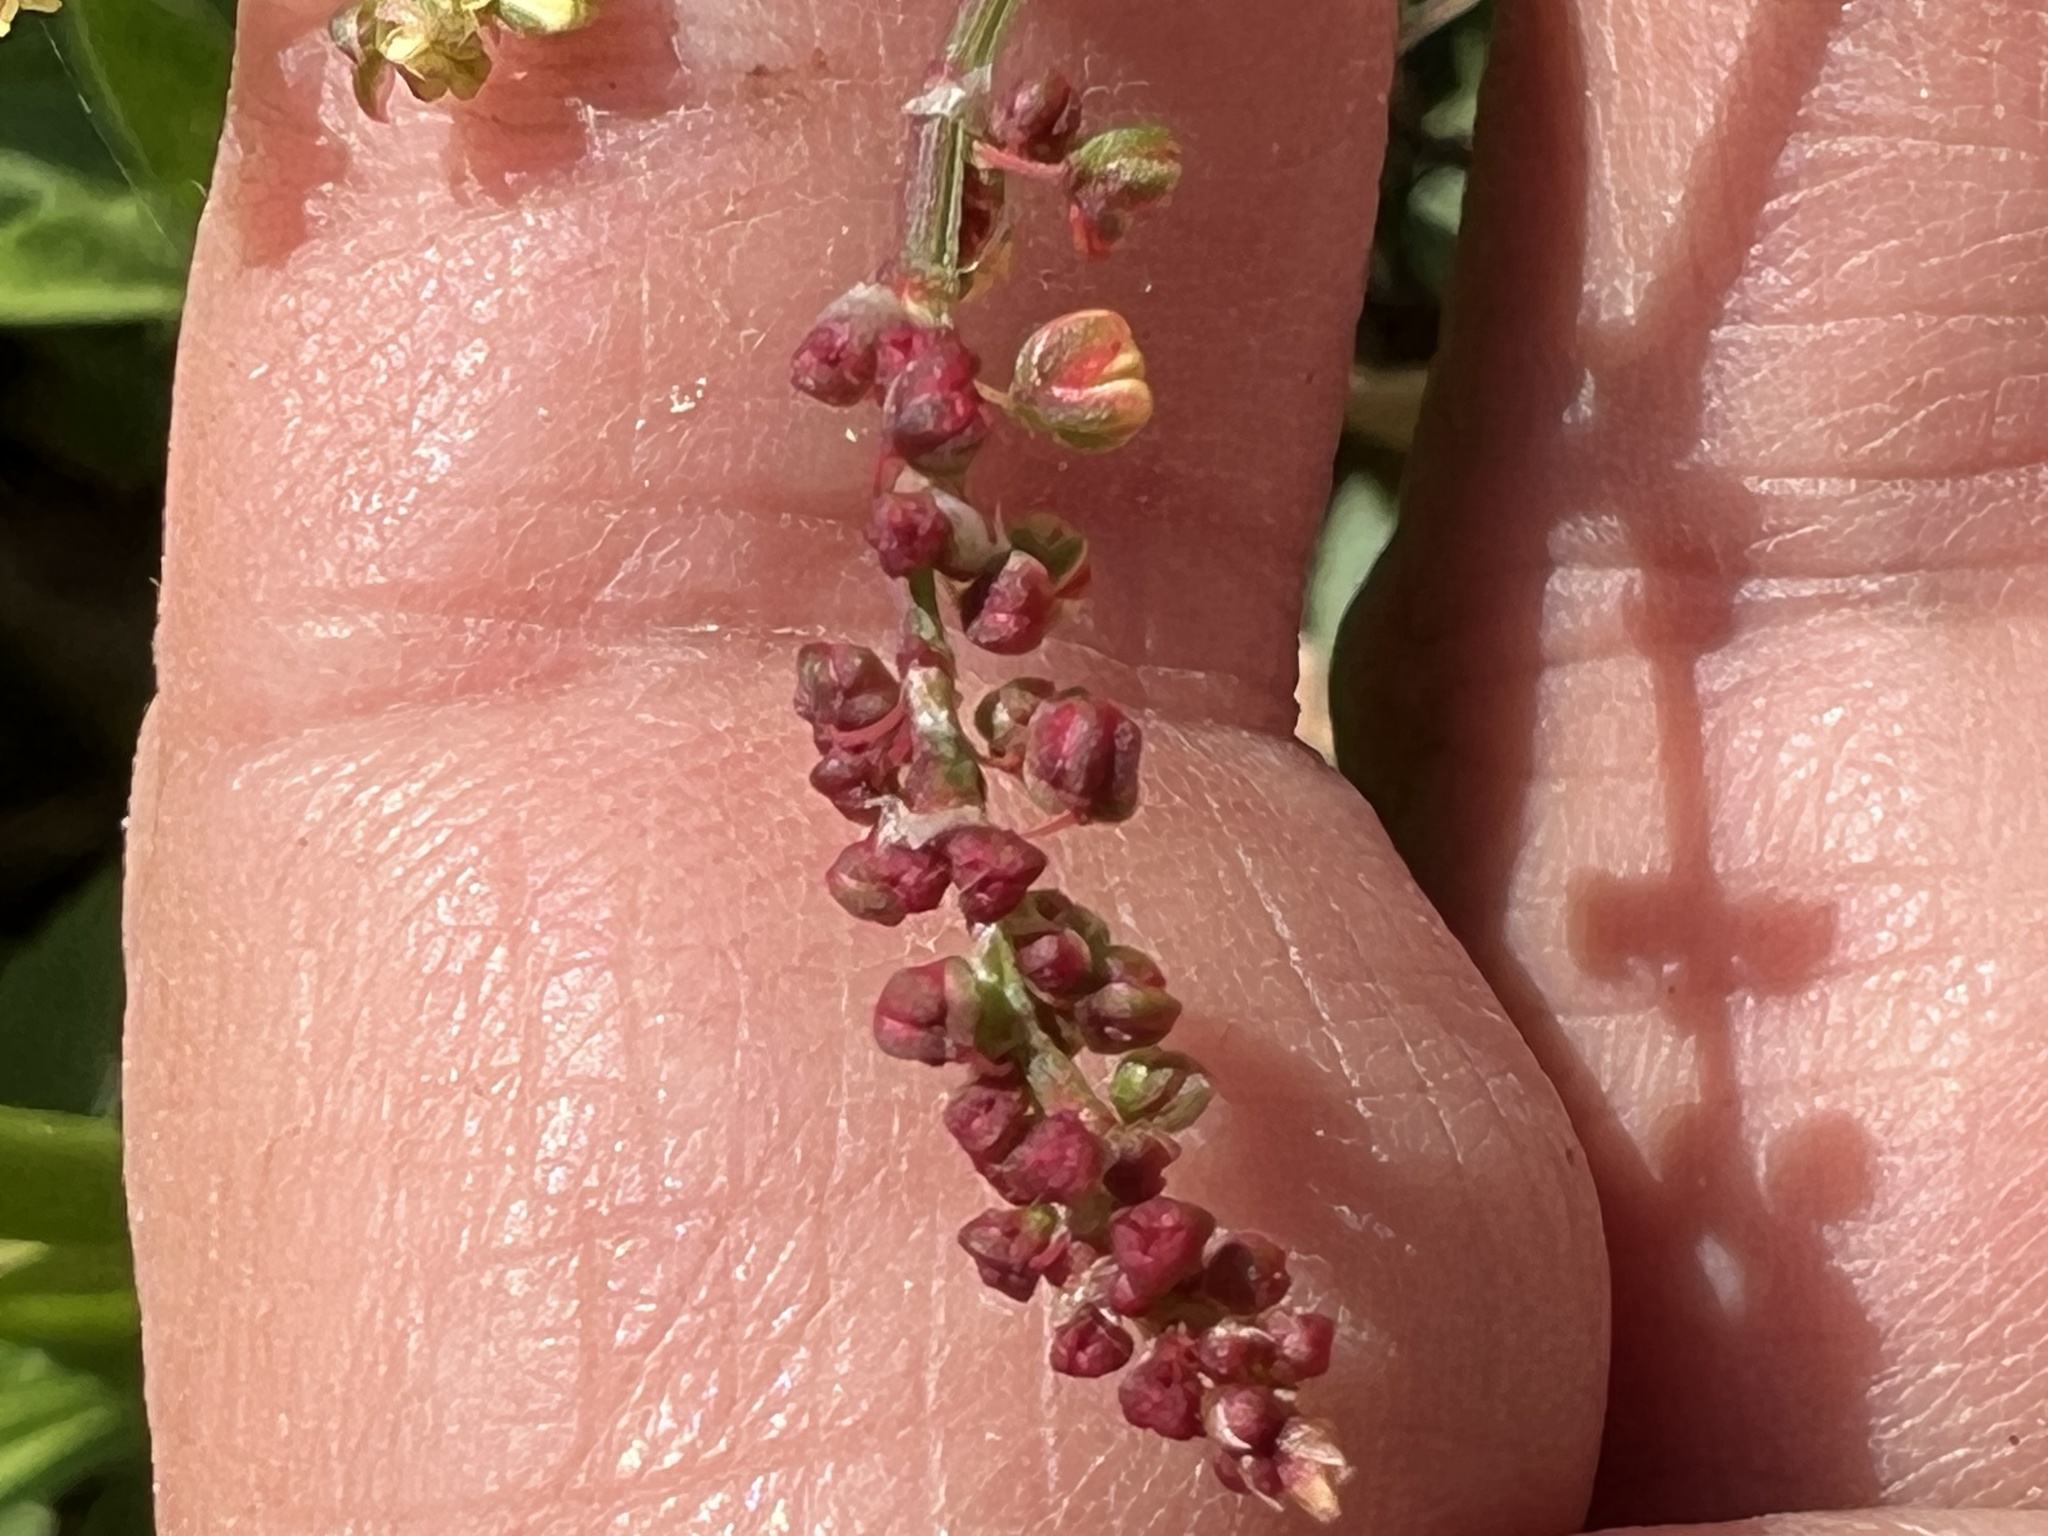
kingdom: Plantae
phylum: Tracheophyta
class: Magnoliopsida
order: Caryophyllales
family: Polygonaceae
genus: Rumex
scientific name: Rumex acetosella
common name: Common sheep sorrel
